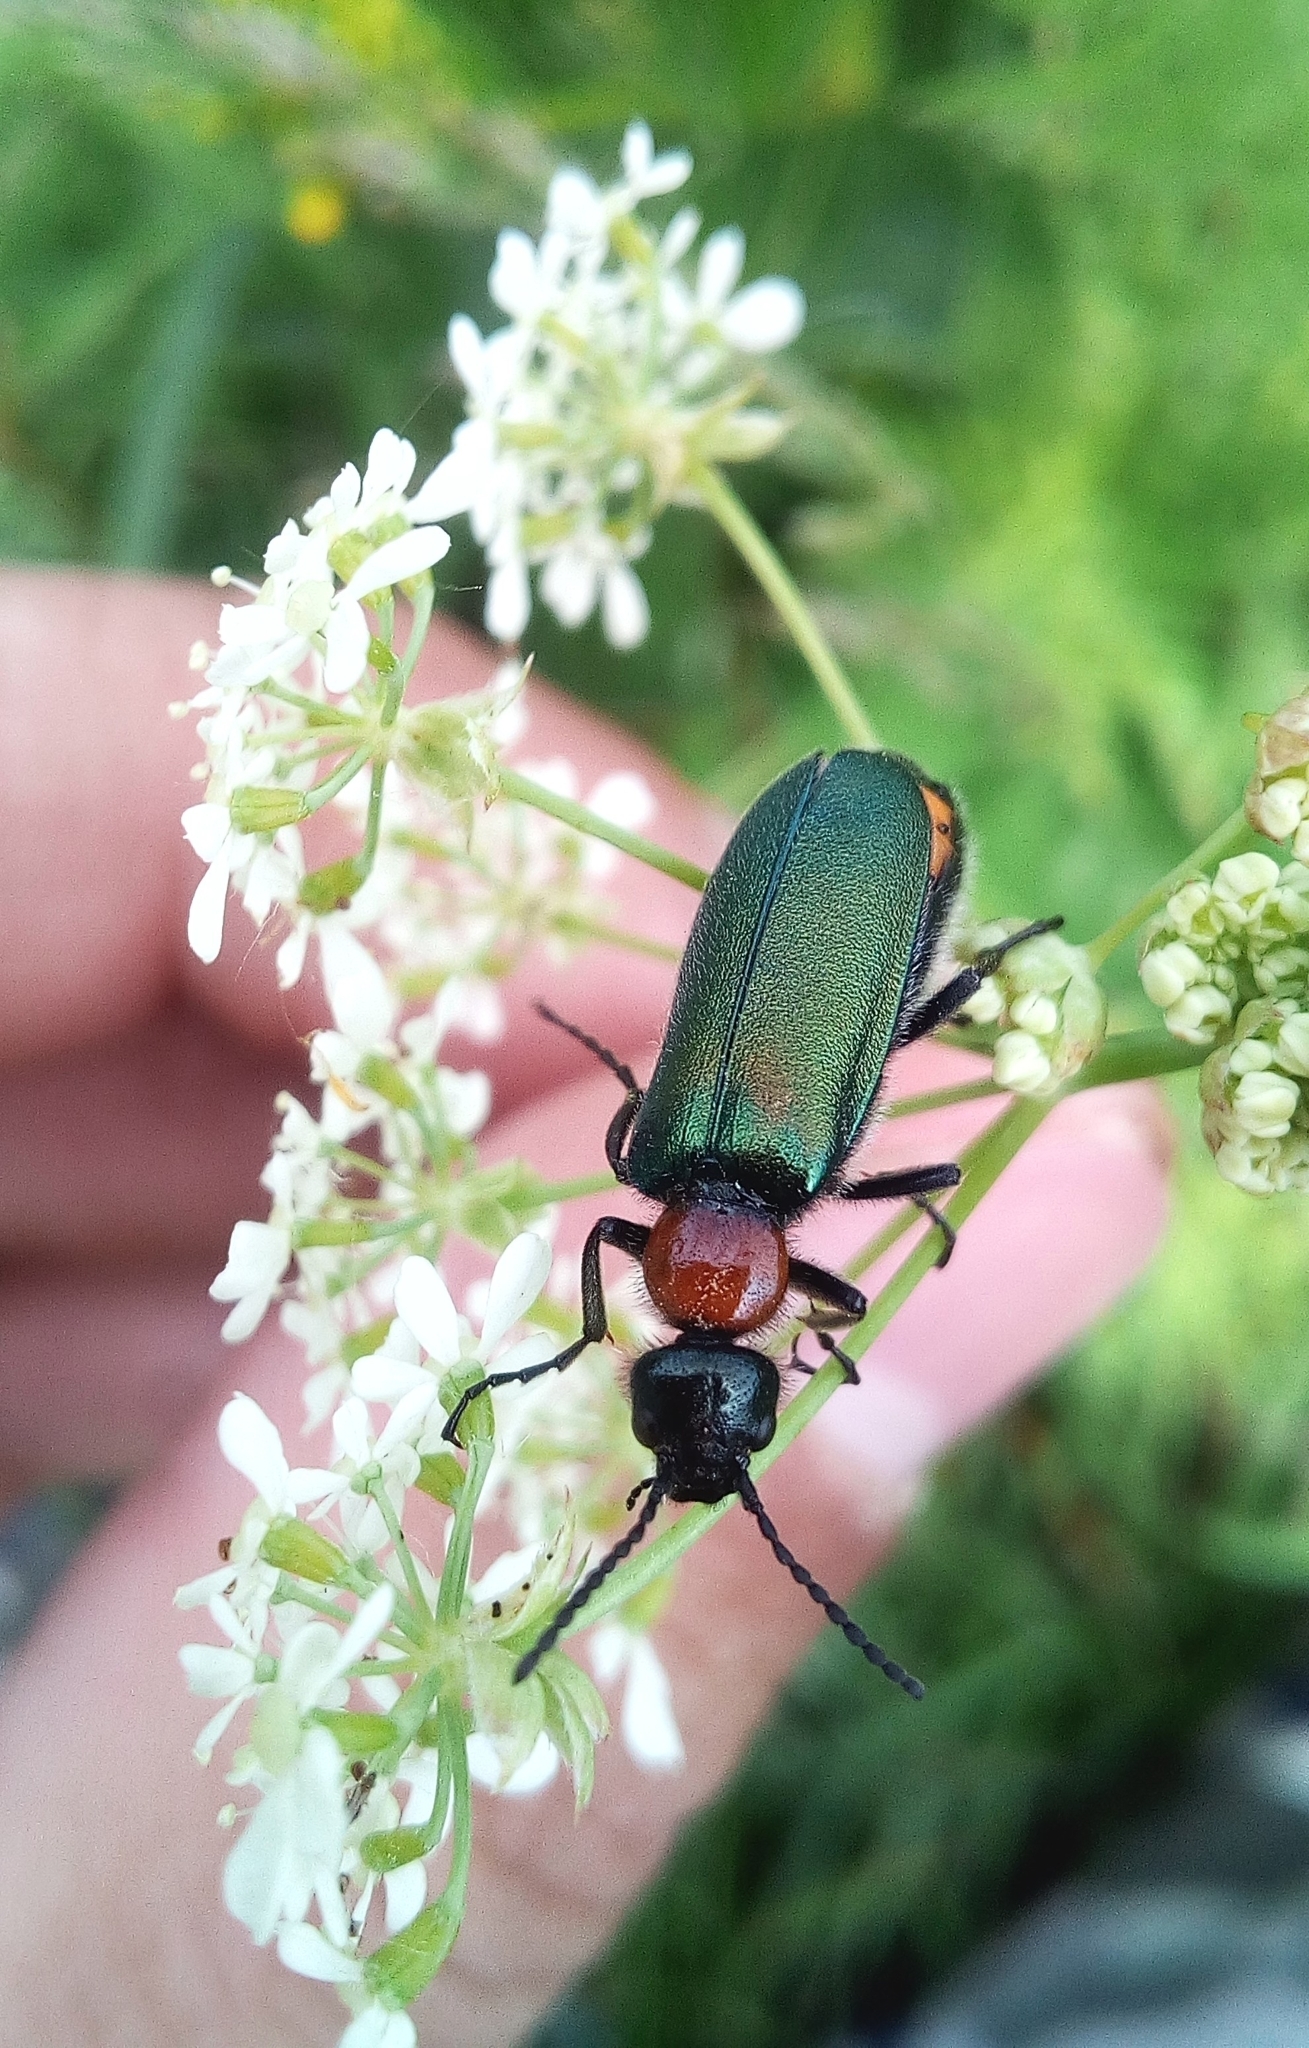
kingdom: Animalia
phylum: Arthropoda
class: Insecta
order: Coleoptera
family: Meloidae
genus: Alosimus
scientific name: Alosimus syriacus
